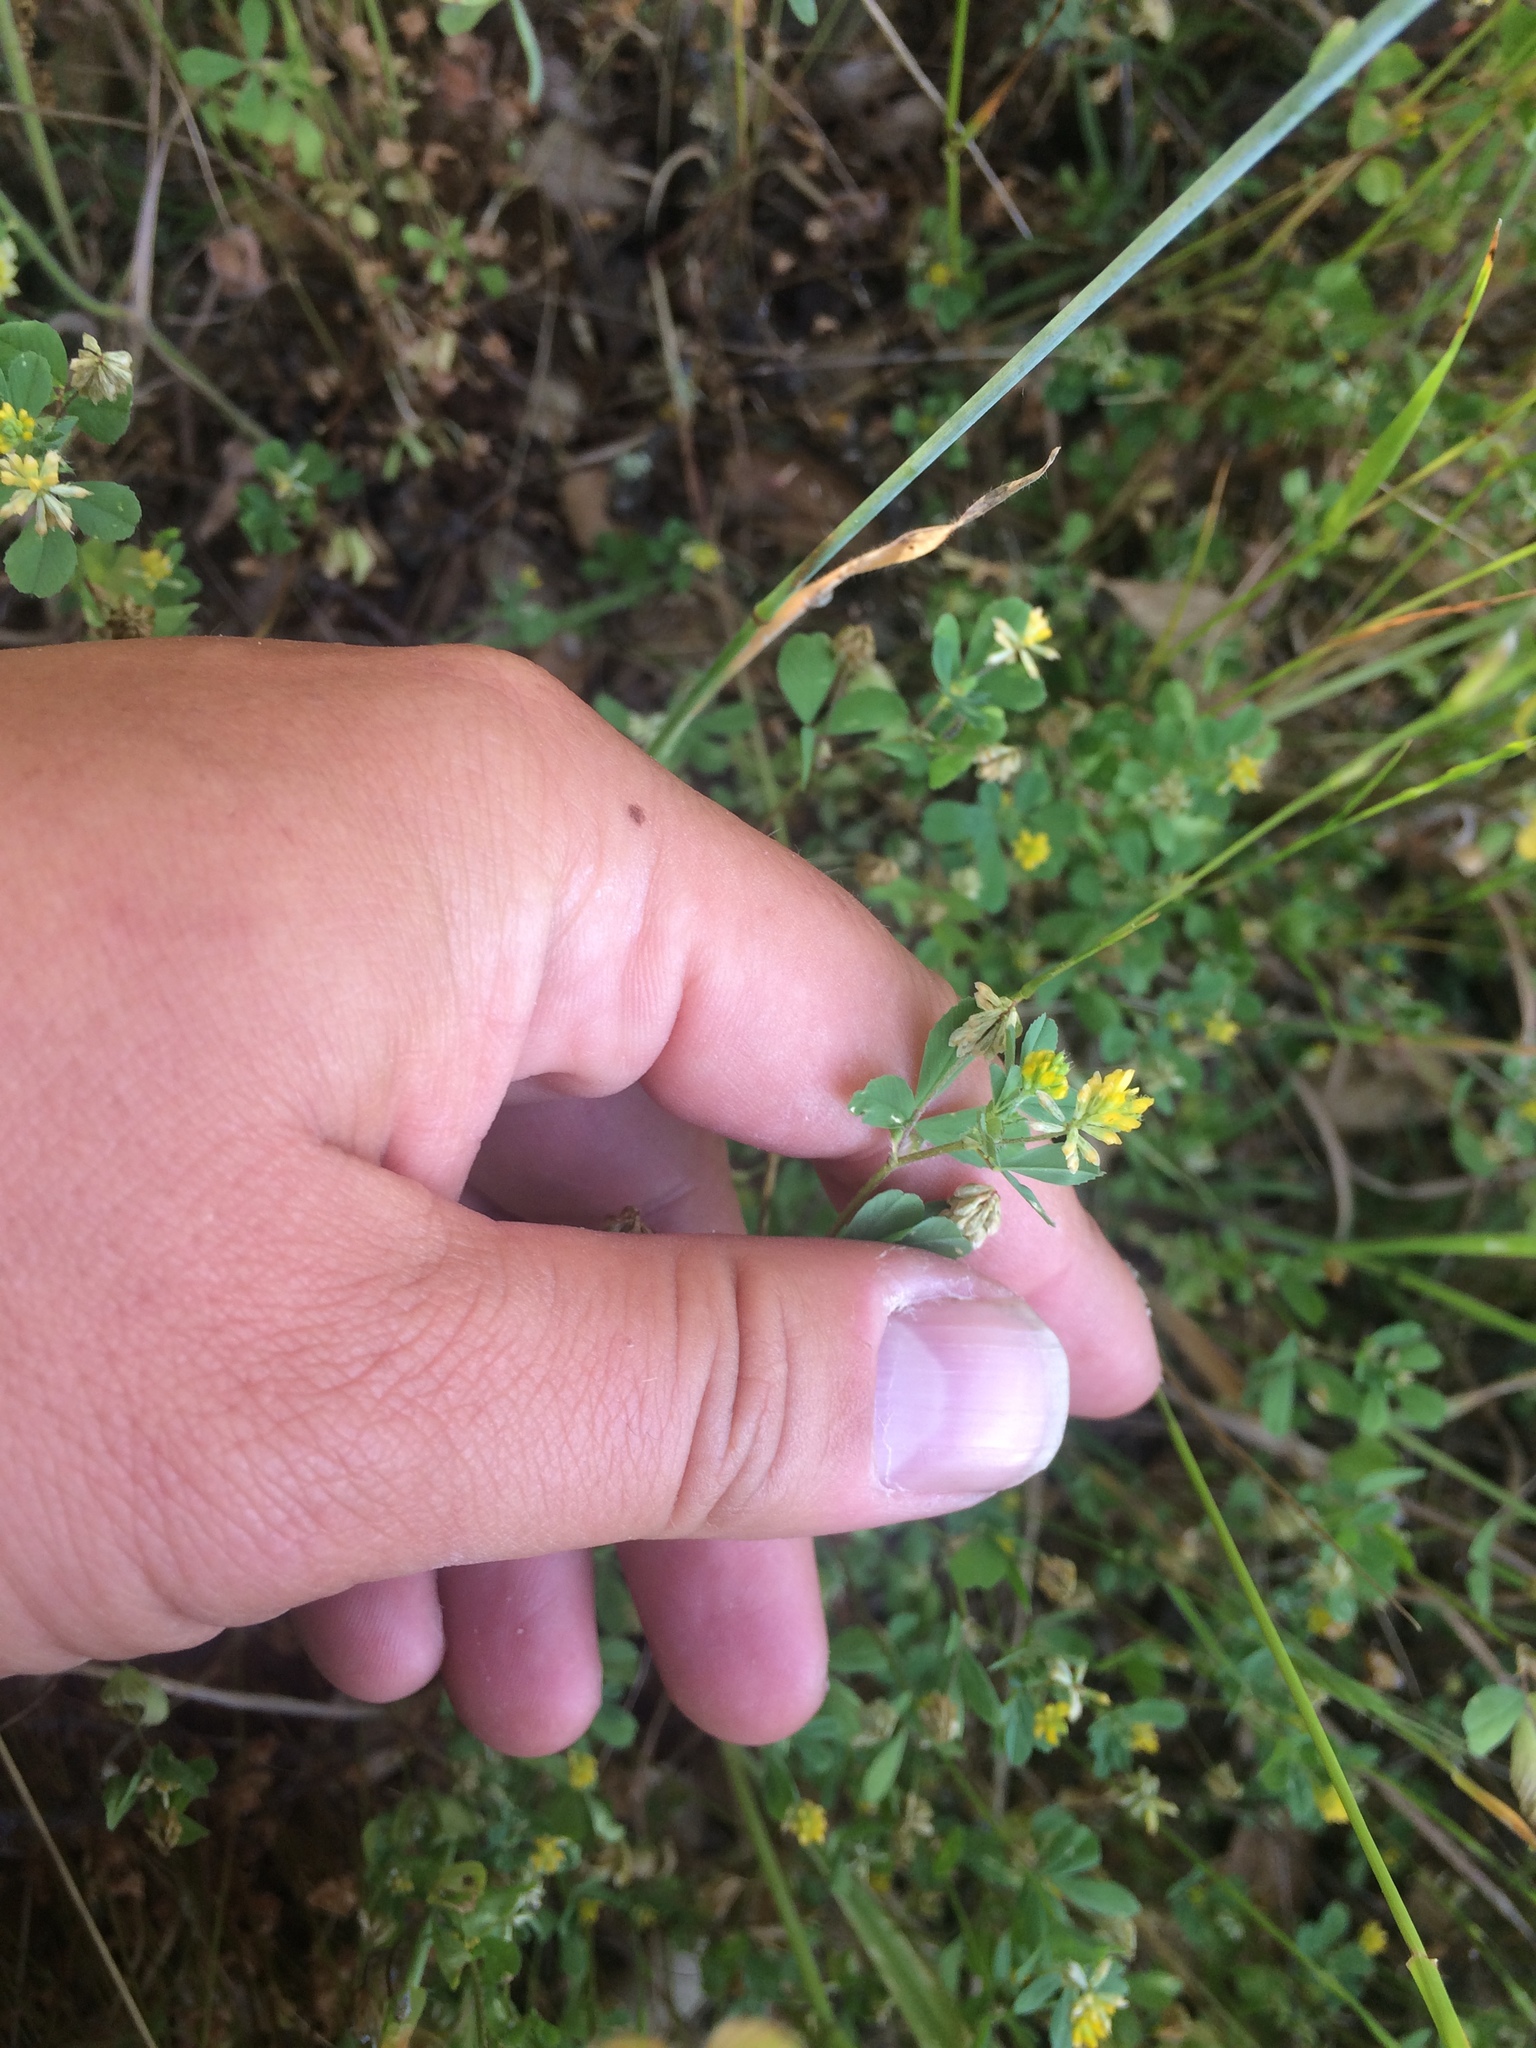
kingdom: Plantae
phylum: Tracheophyta
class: Magnoliopsida
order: Fabales
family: Fabaceae
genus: Trifolium
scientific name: Trifolium dubium
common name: Suckling clover
